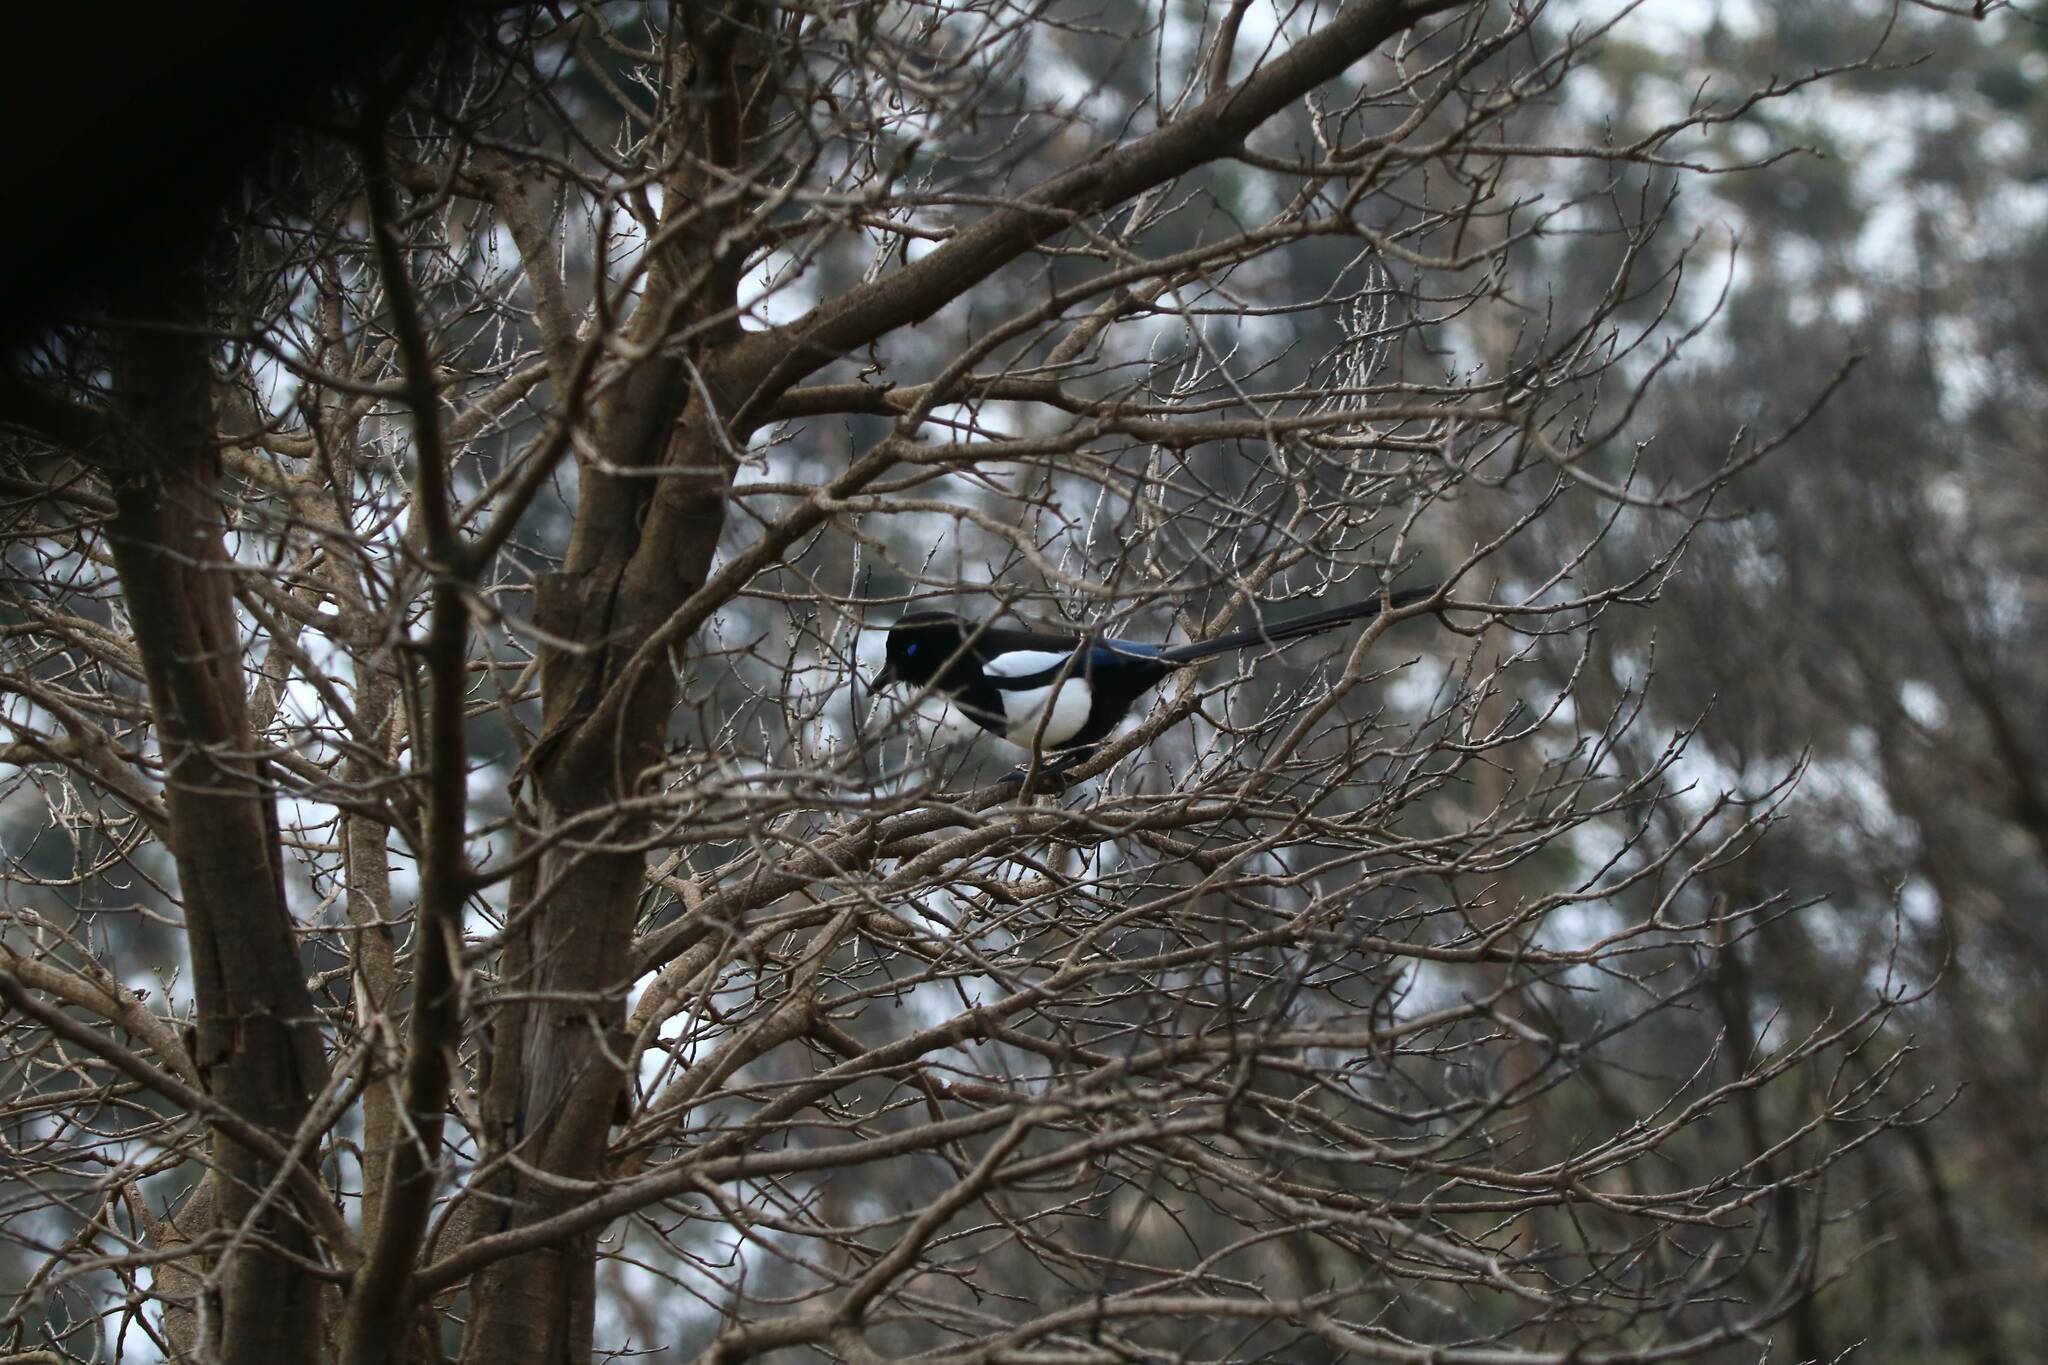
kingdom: Animalia
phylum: Chordata
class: Aves
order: Passeriformes
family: Corvidae
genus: Pica
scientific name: Pica mauritanica
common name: Maghreb magpie
